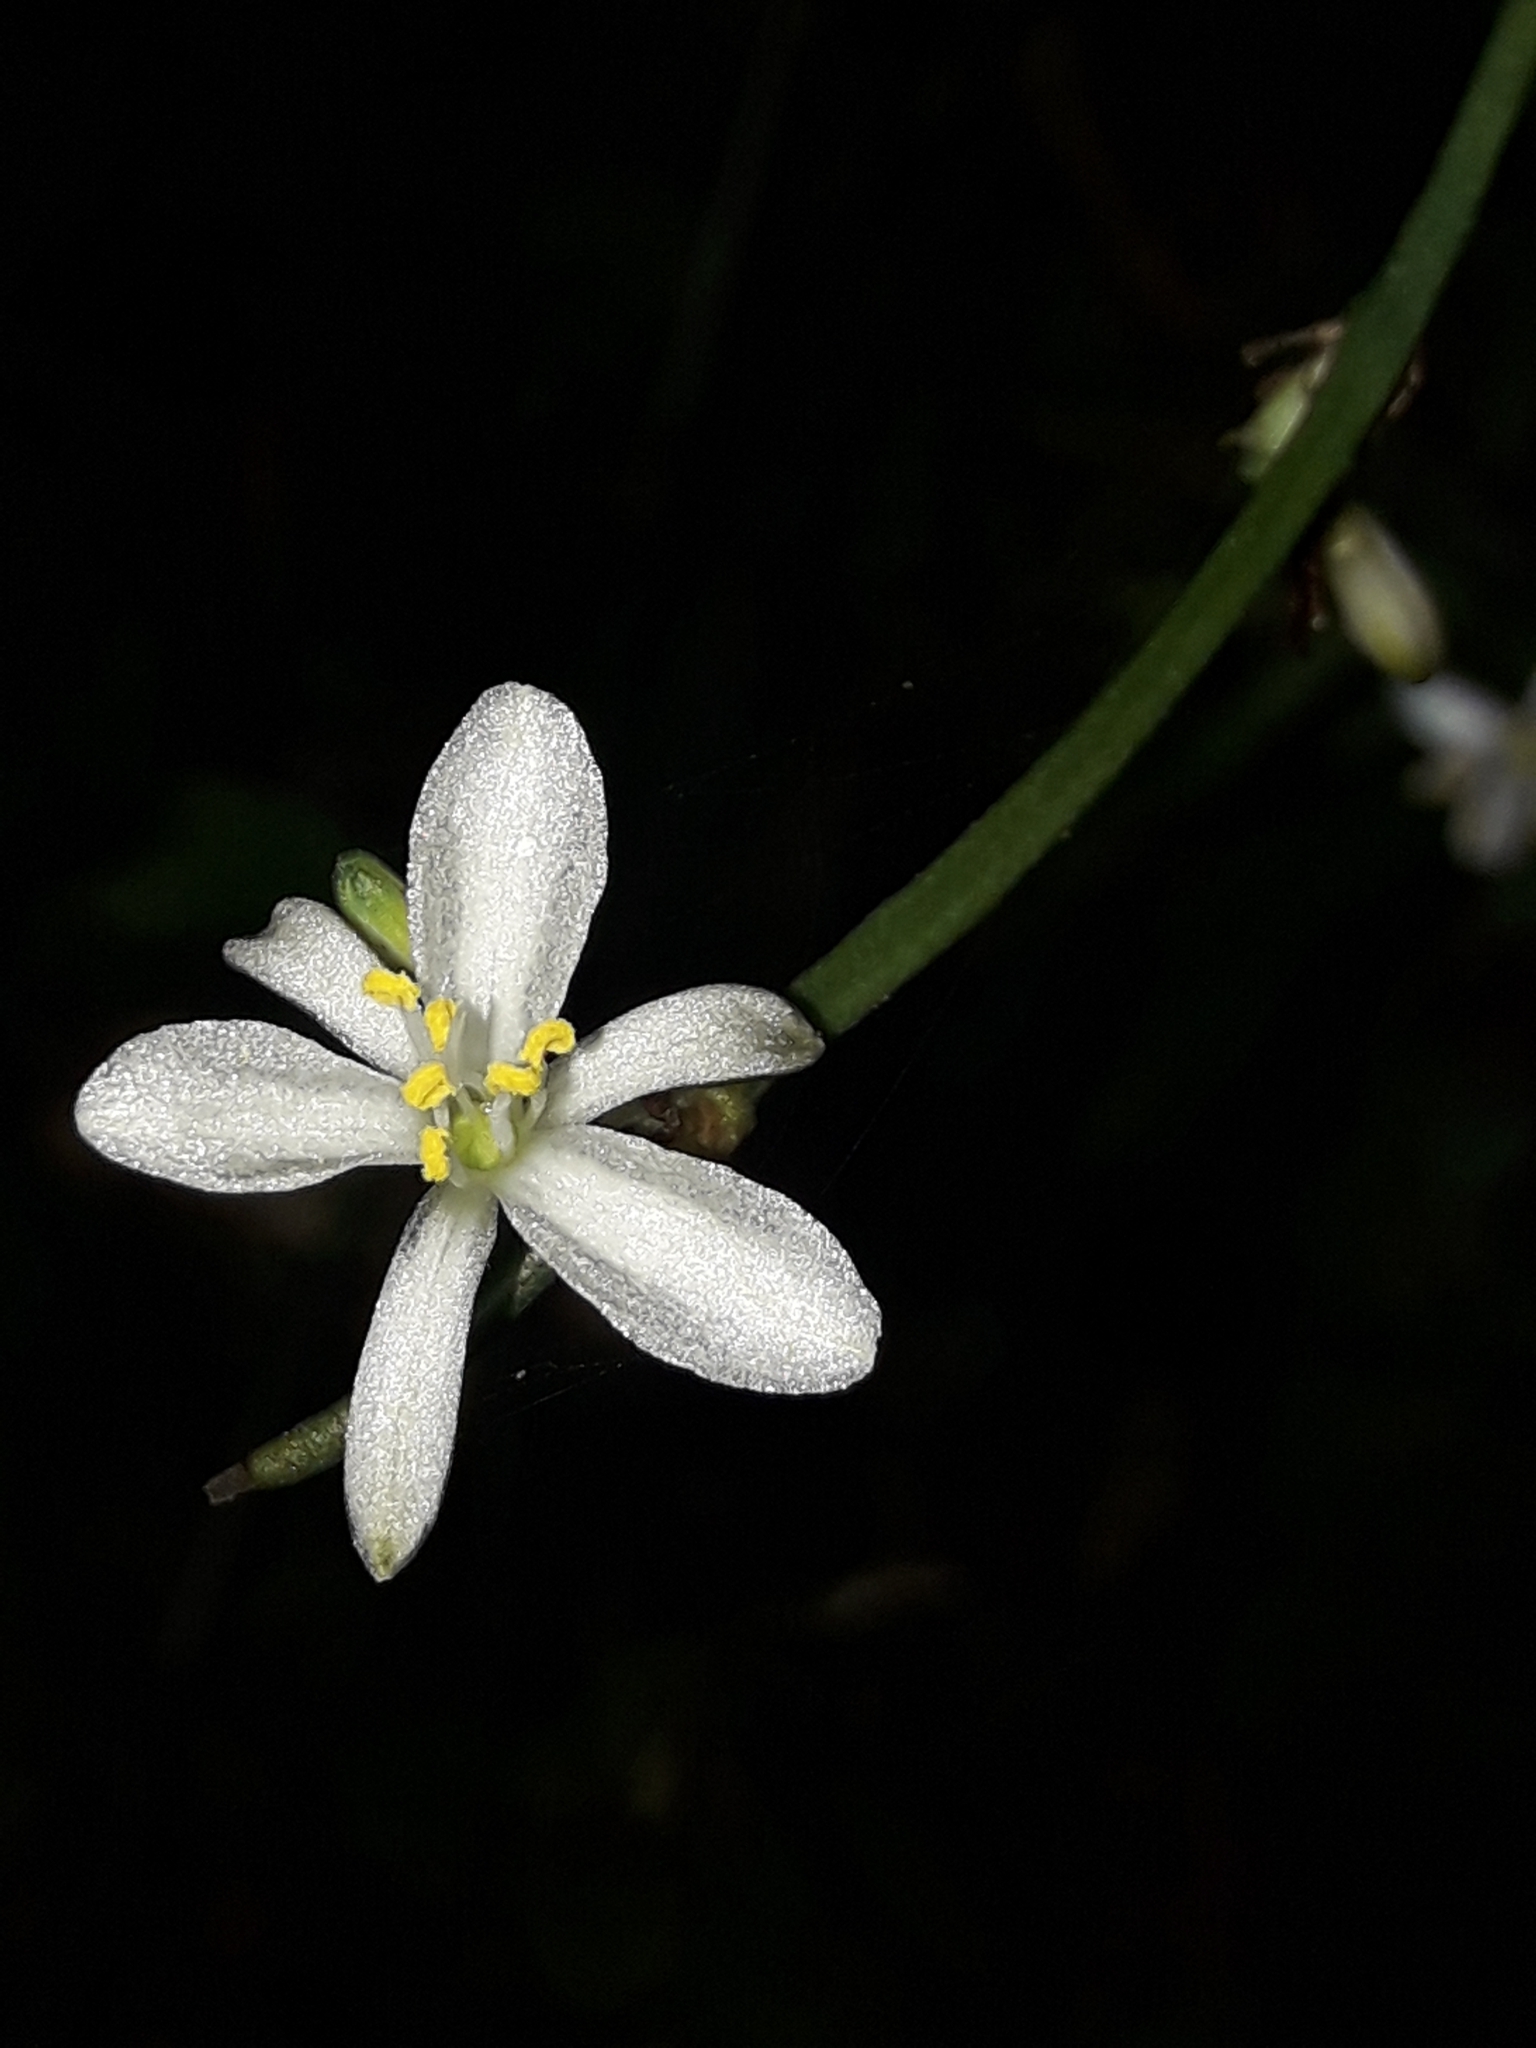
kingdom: Plantae
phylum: Tracheophyta
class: Liliopsida
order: Asparagales
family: Asparagaceae
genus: Chlorophytum
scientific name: Chlorophytum comosum
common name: Spider plant
